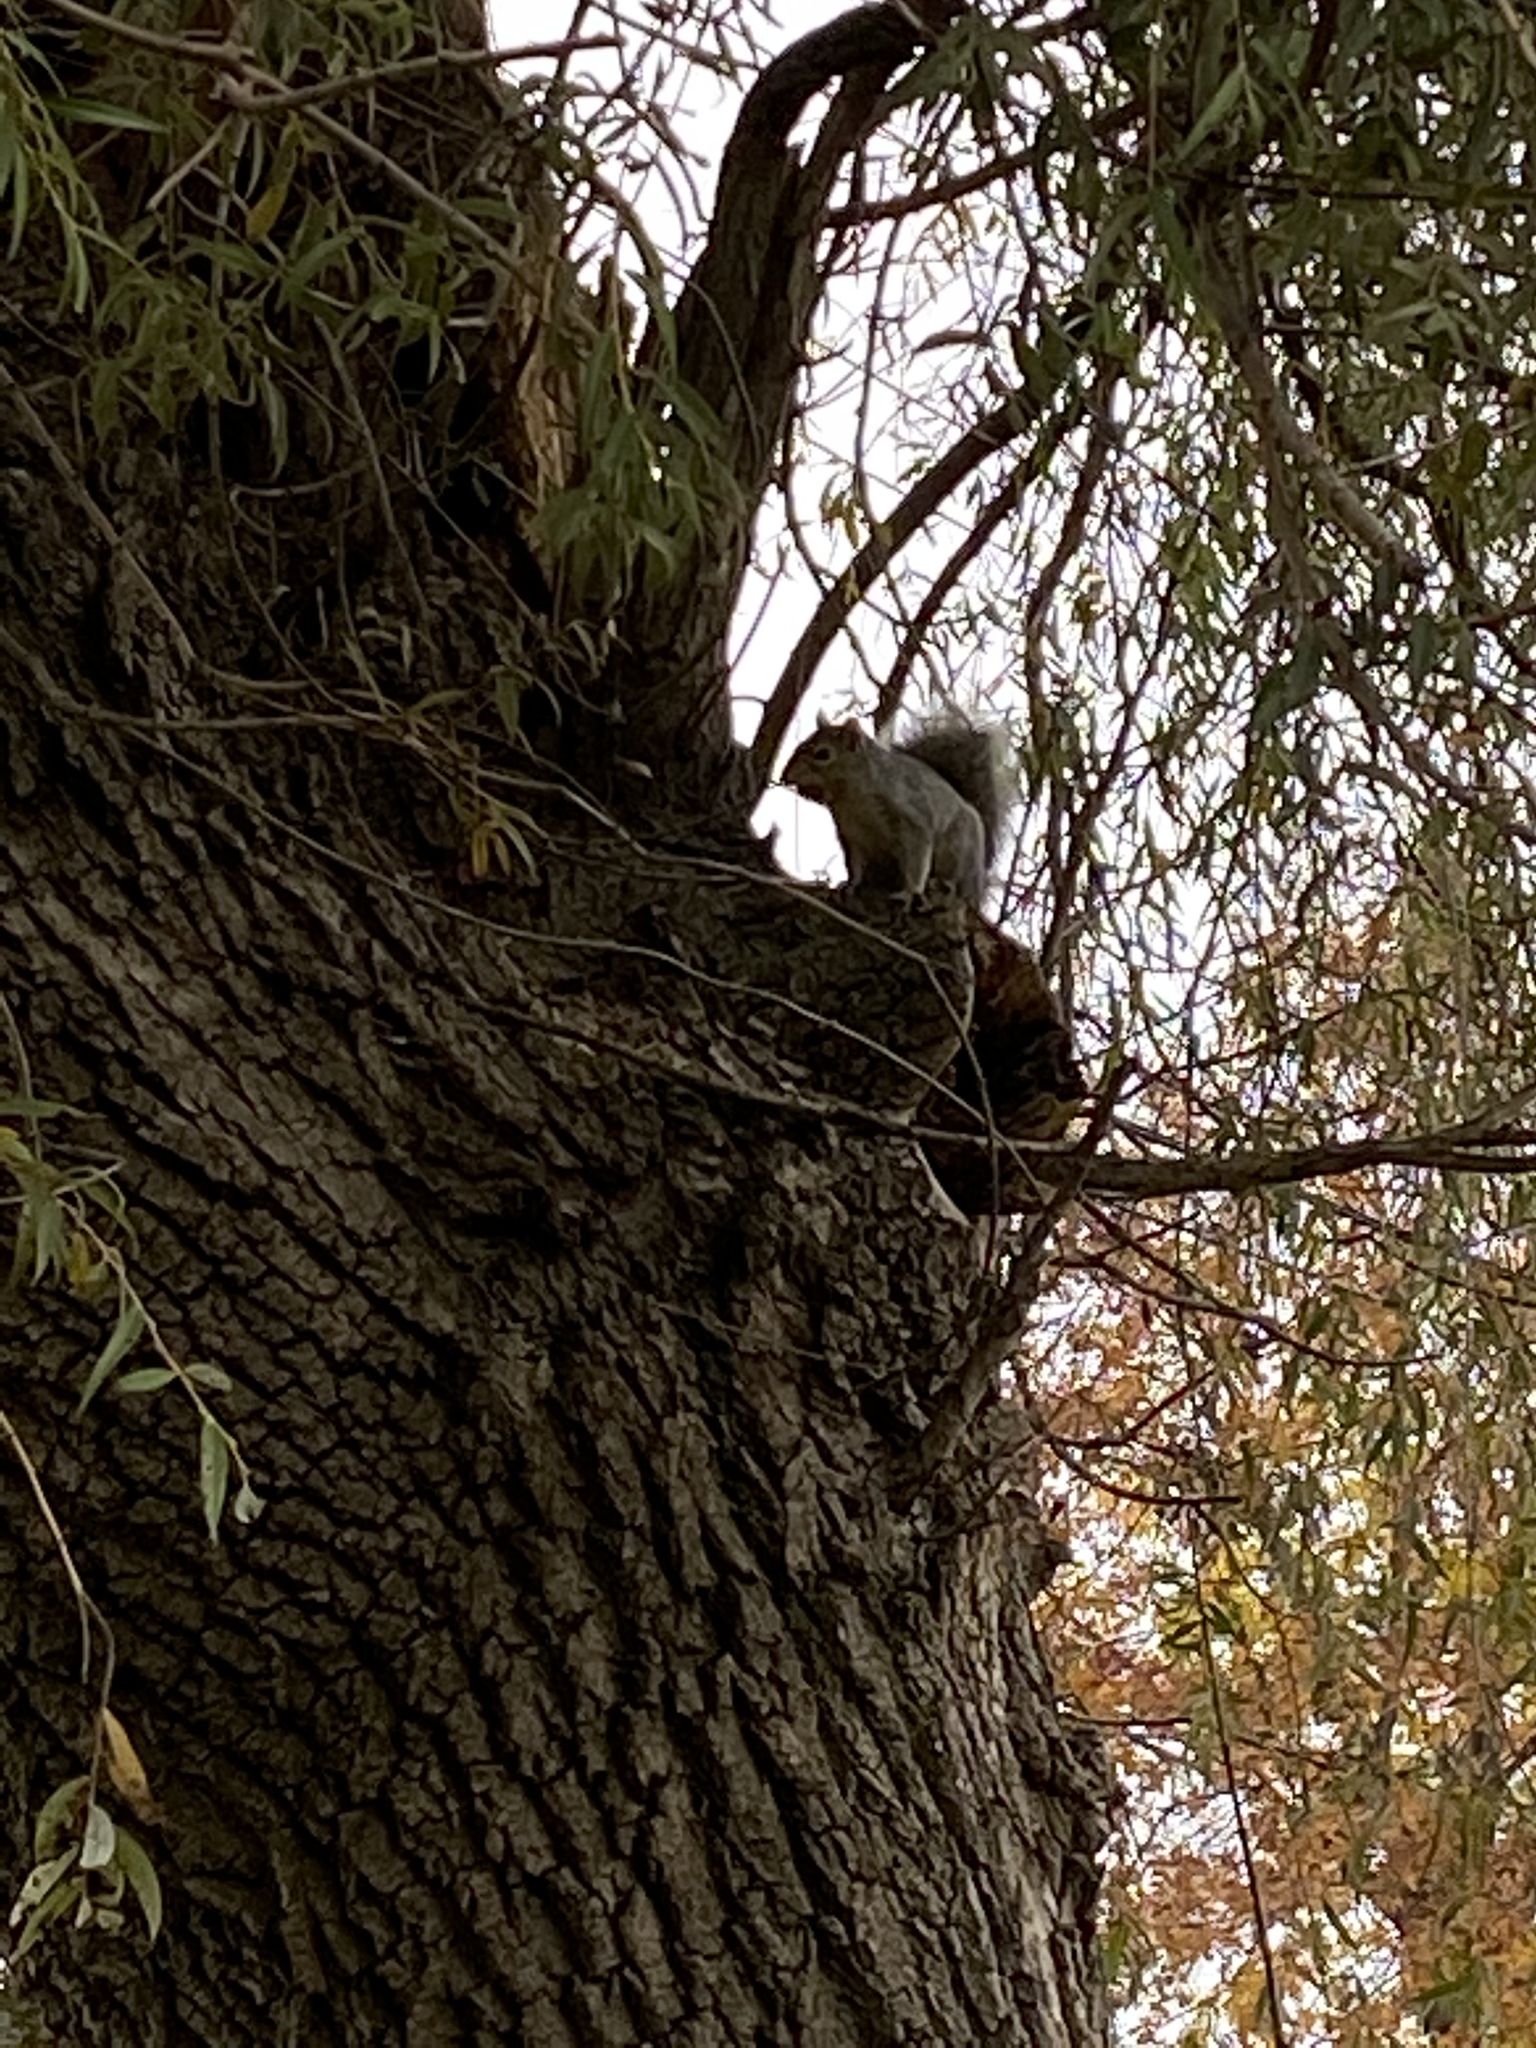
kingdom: Animalia
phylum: Chordata
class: Mammalia
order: Rodentia
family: Sciuridae
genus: Sciurus
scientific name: Sciurus carolinensis
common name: Eastern gray squirrel
